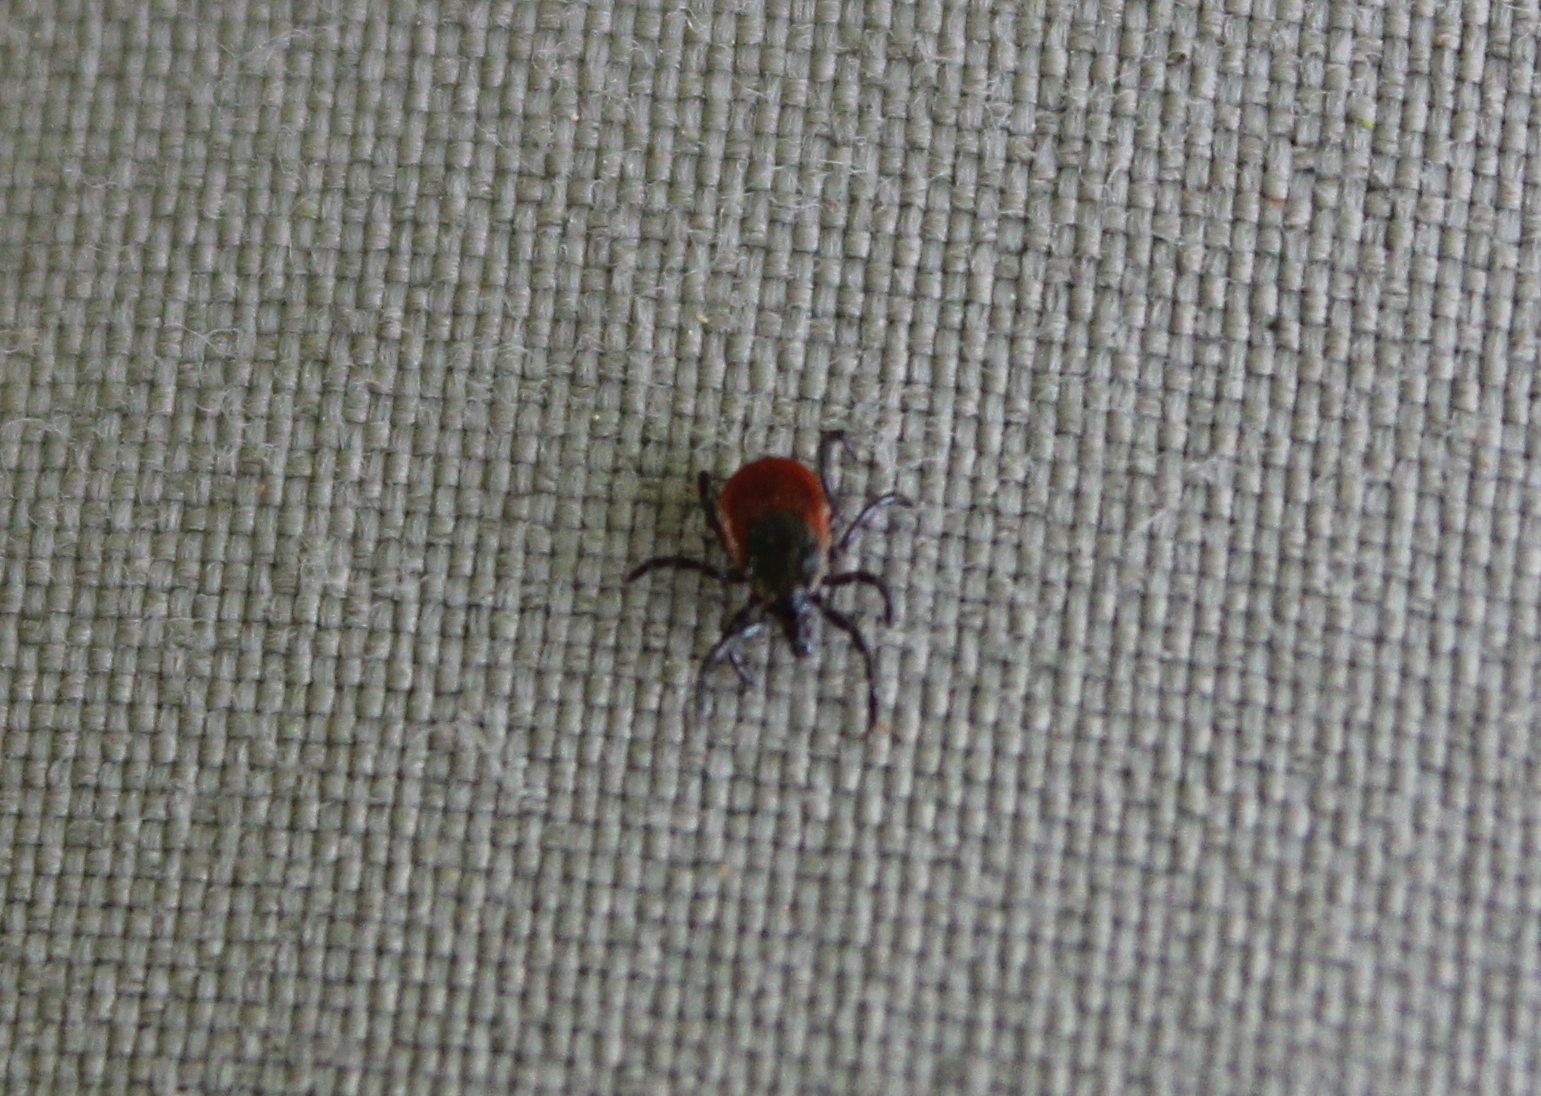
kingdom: Animalia
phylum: Arthropoda
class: Arachnida
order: Ixodida
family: Ixodidae
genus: Ixodes
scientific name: Ixodes scapularis
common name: Black legged tick
